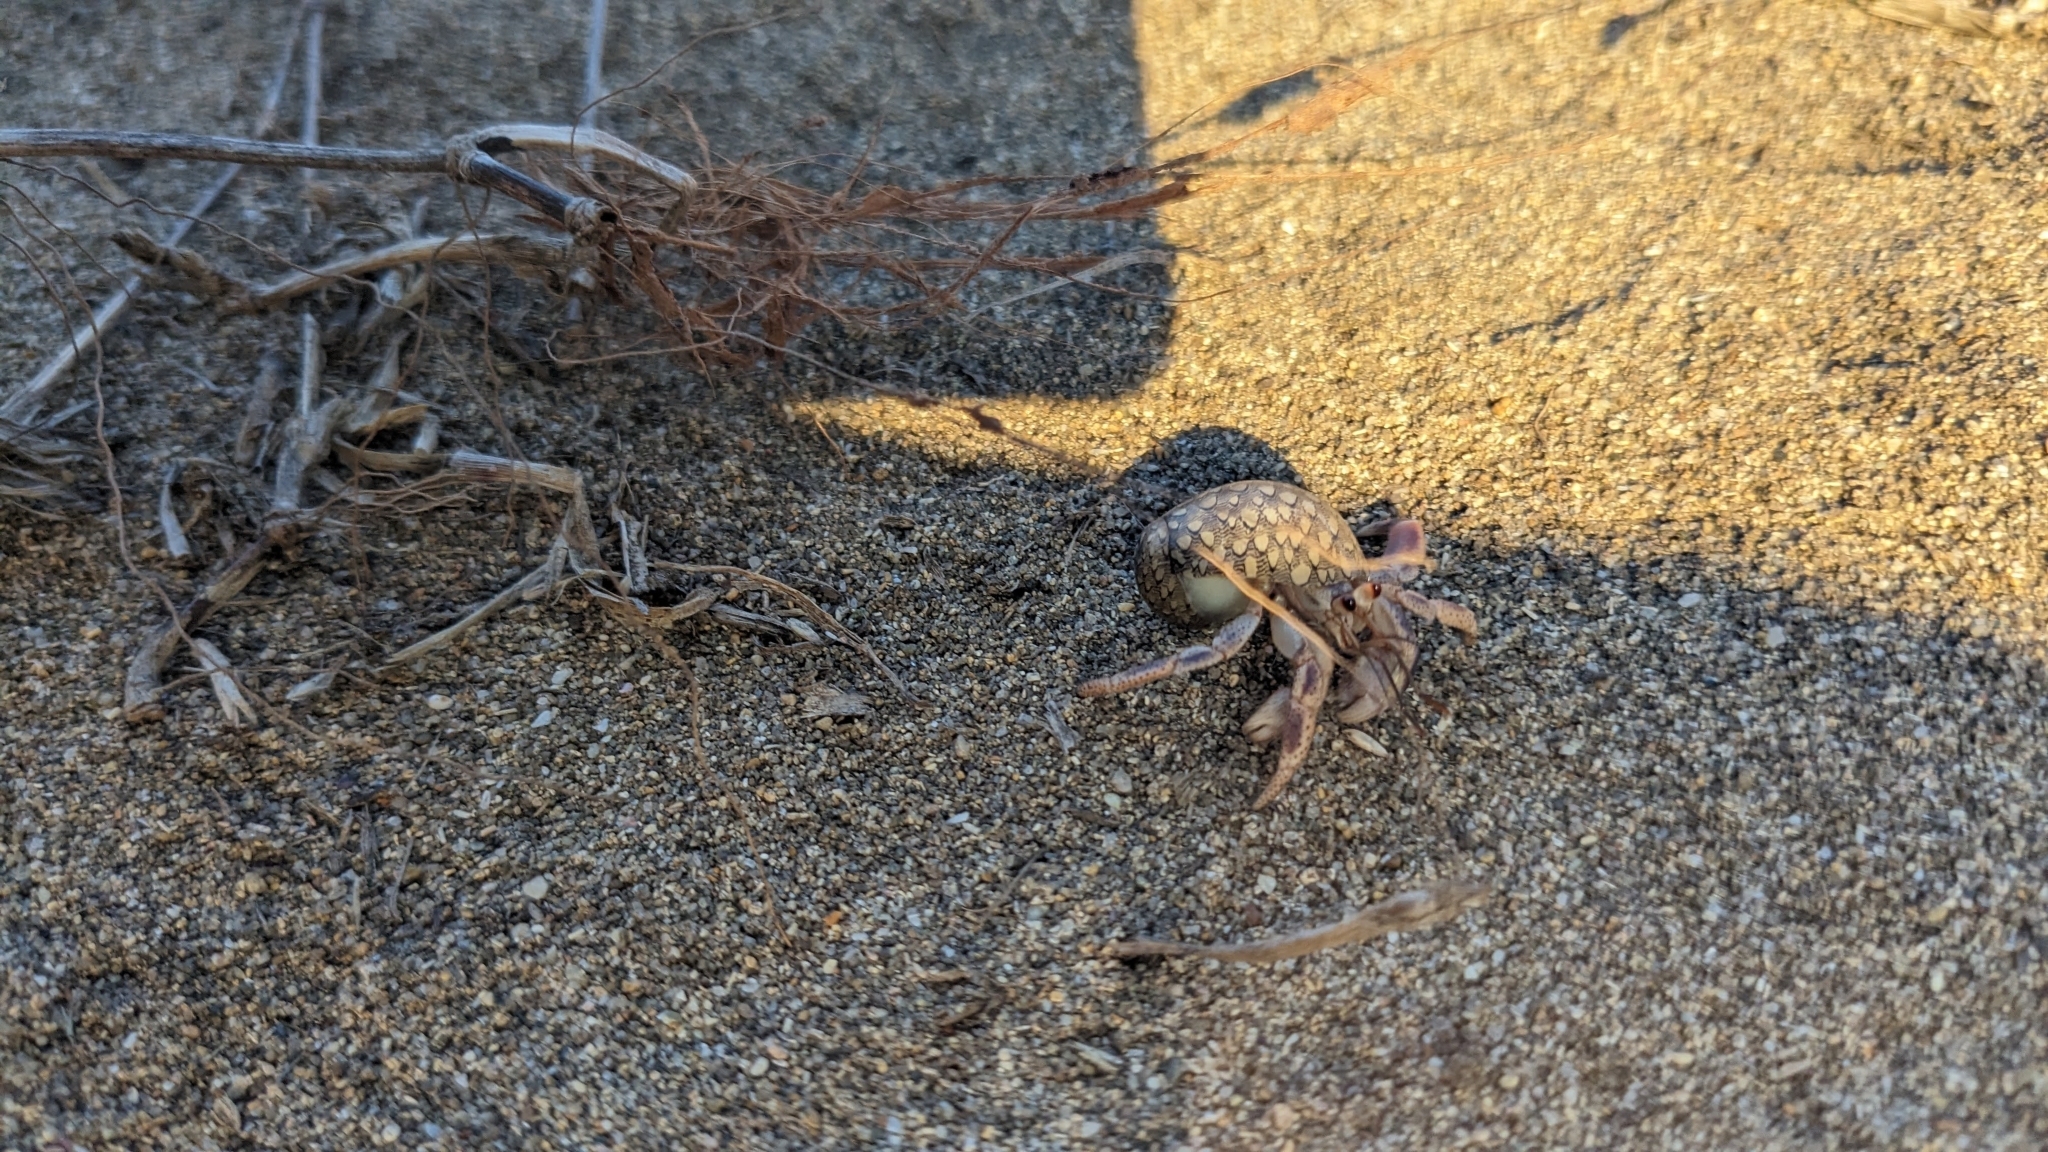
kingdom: Animalia
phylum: Arthropoda
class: Malacostraca
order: Decapoda
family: Coenobitidae
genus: Coenobita
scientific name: Coenobita clypeatus
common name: Caribbean hermit crab
